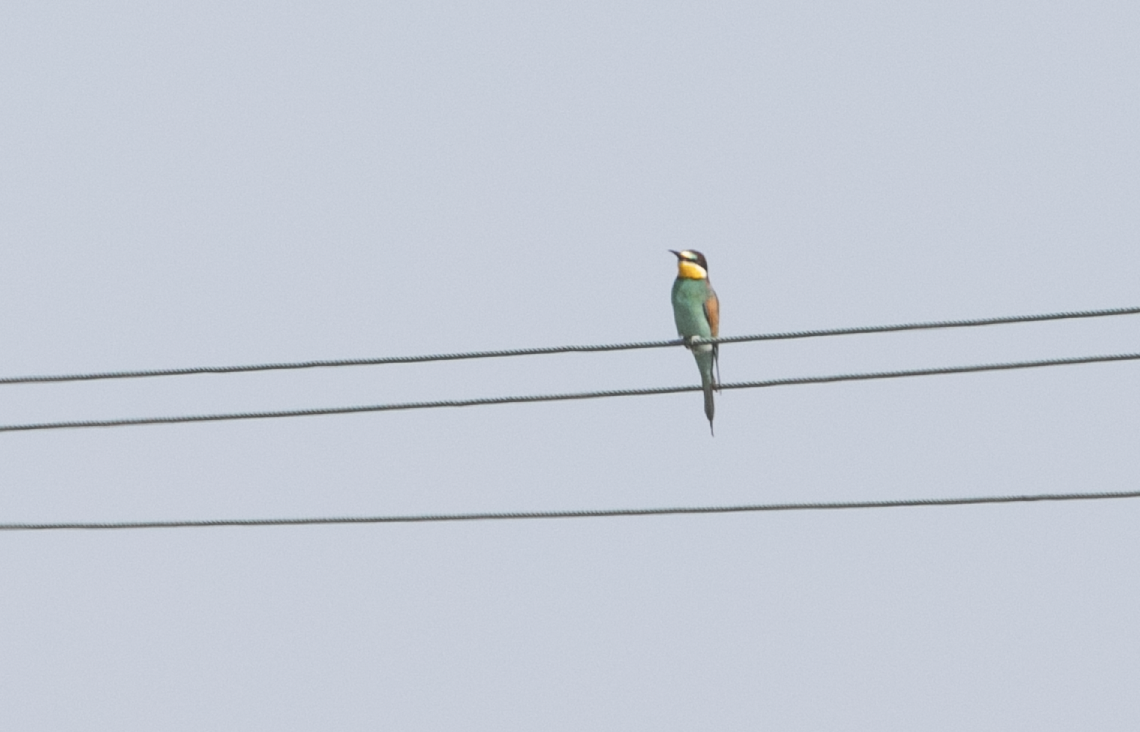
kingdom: Animalia
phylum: Chordata
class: Aves
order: Coraciiformes
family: Meropidae
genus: Merops
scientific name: Merops apiaster
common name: European bee-eater
